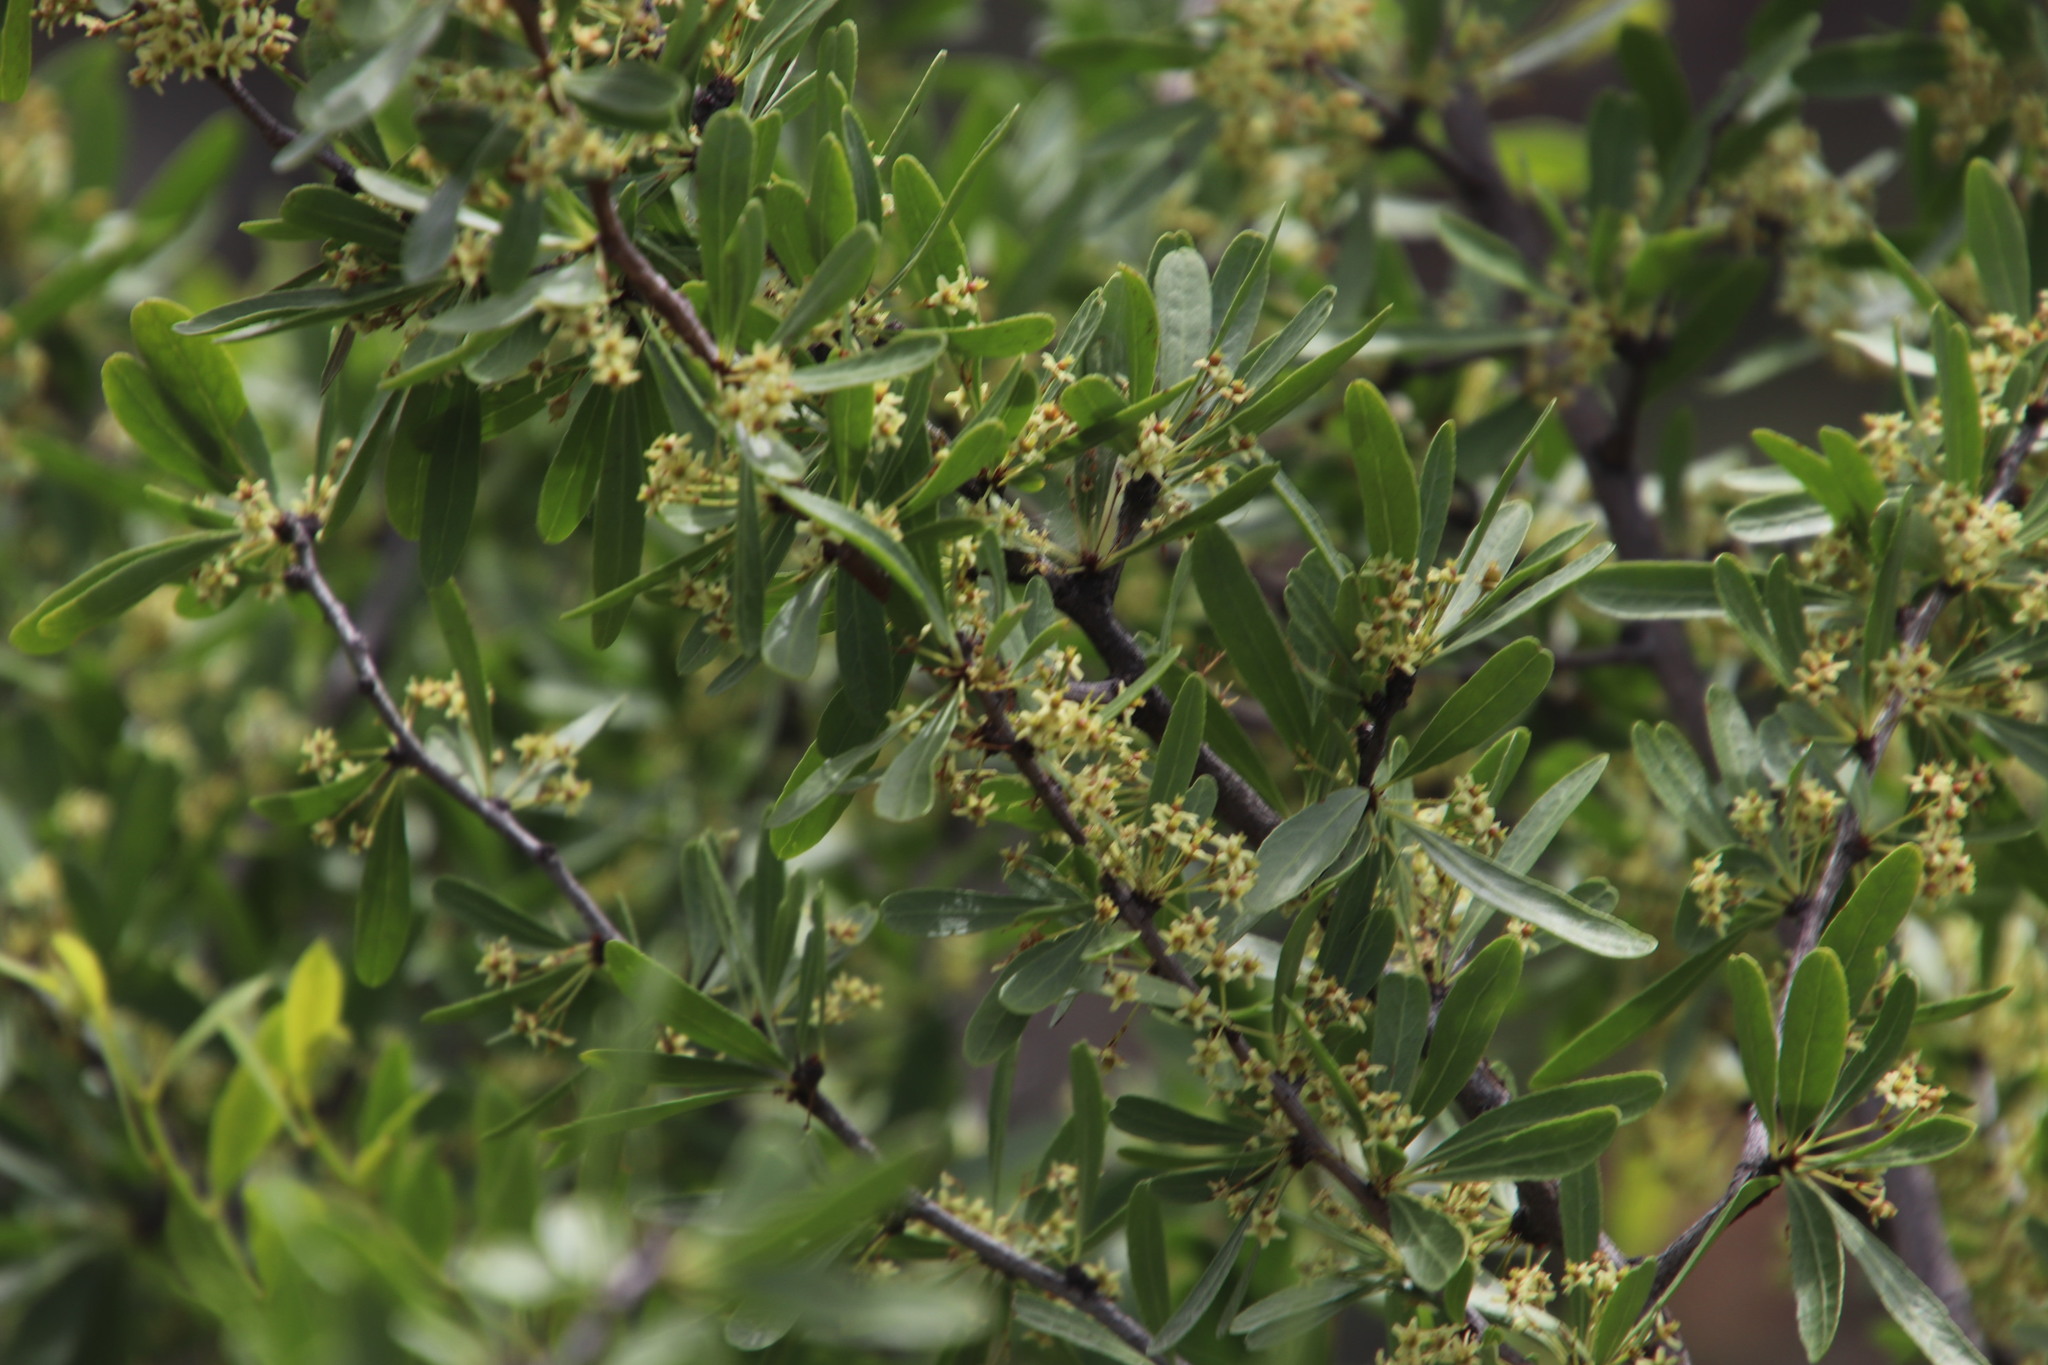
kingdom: Plantae
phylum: Tracheophyta
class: Magnoliopsida
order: Celastrales
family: Celastraceae
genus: Gymnosporia
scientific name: Gymnosporia tenuispina
